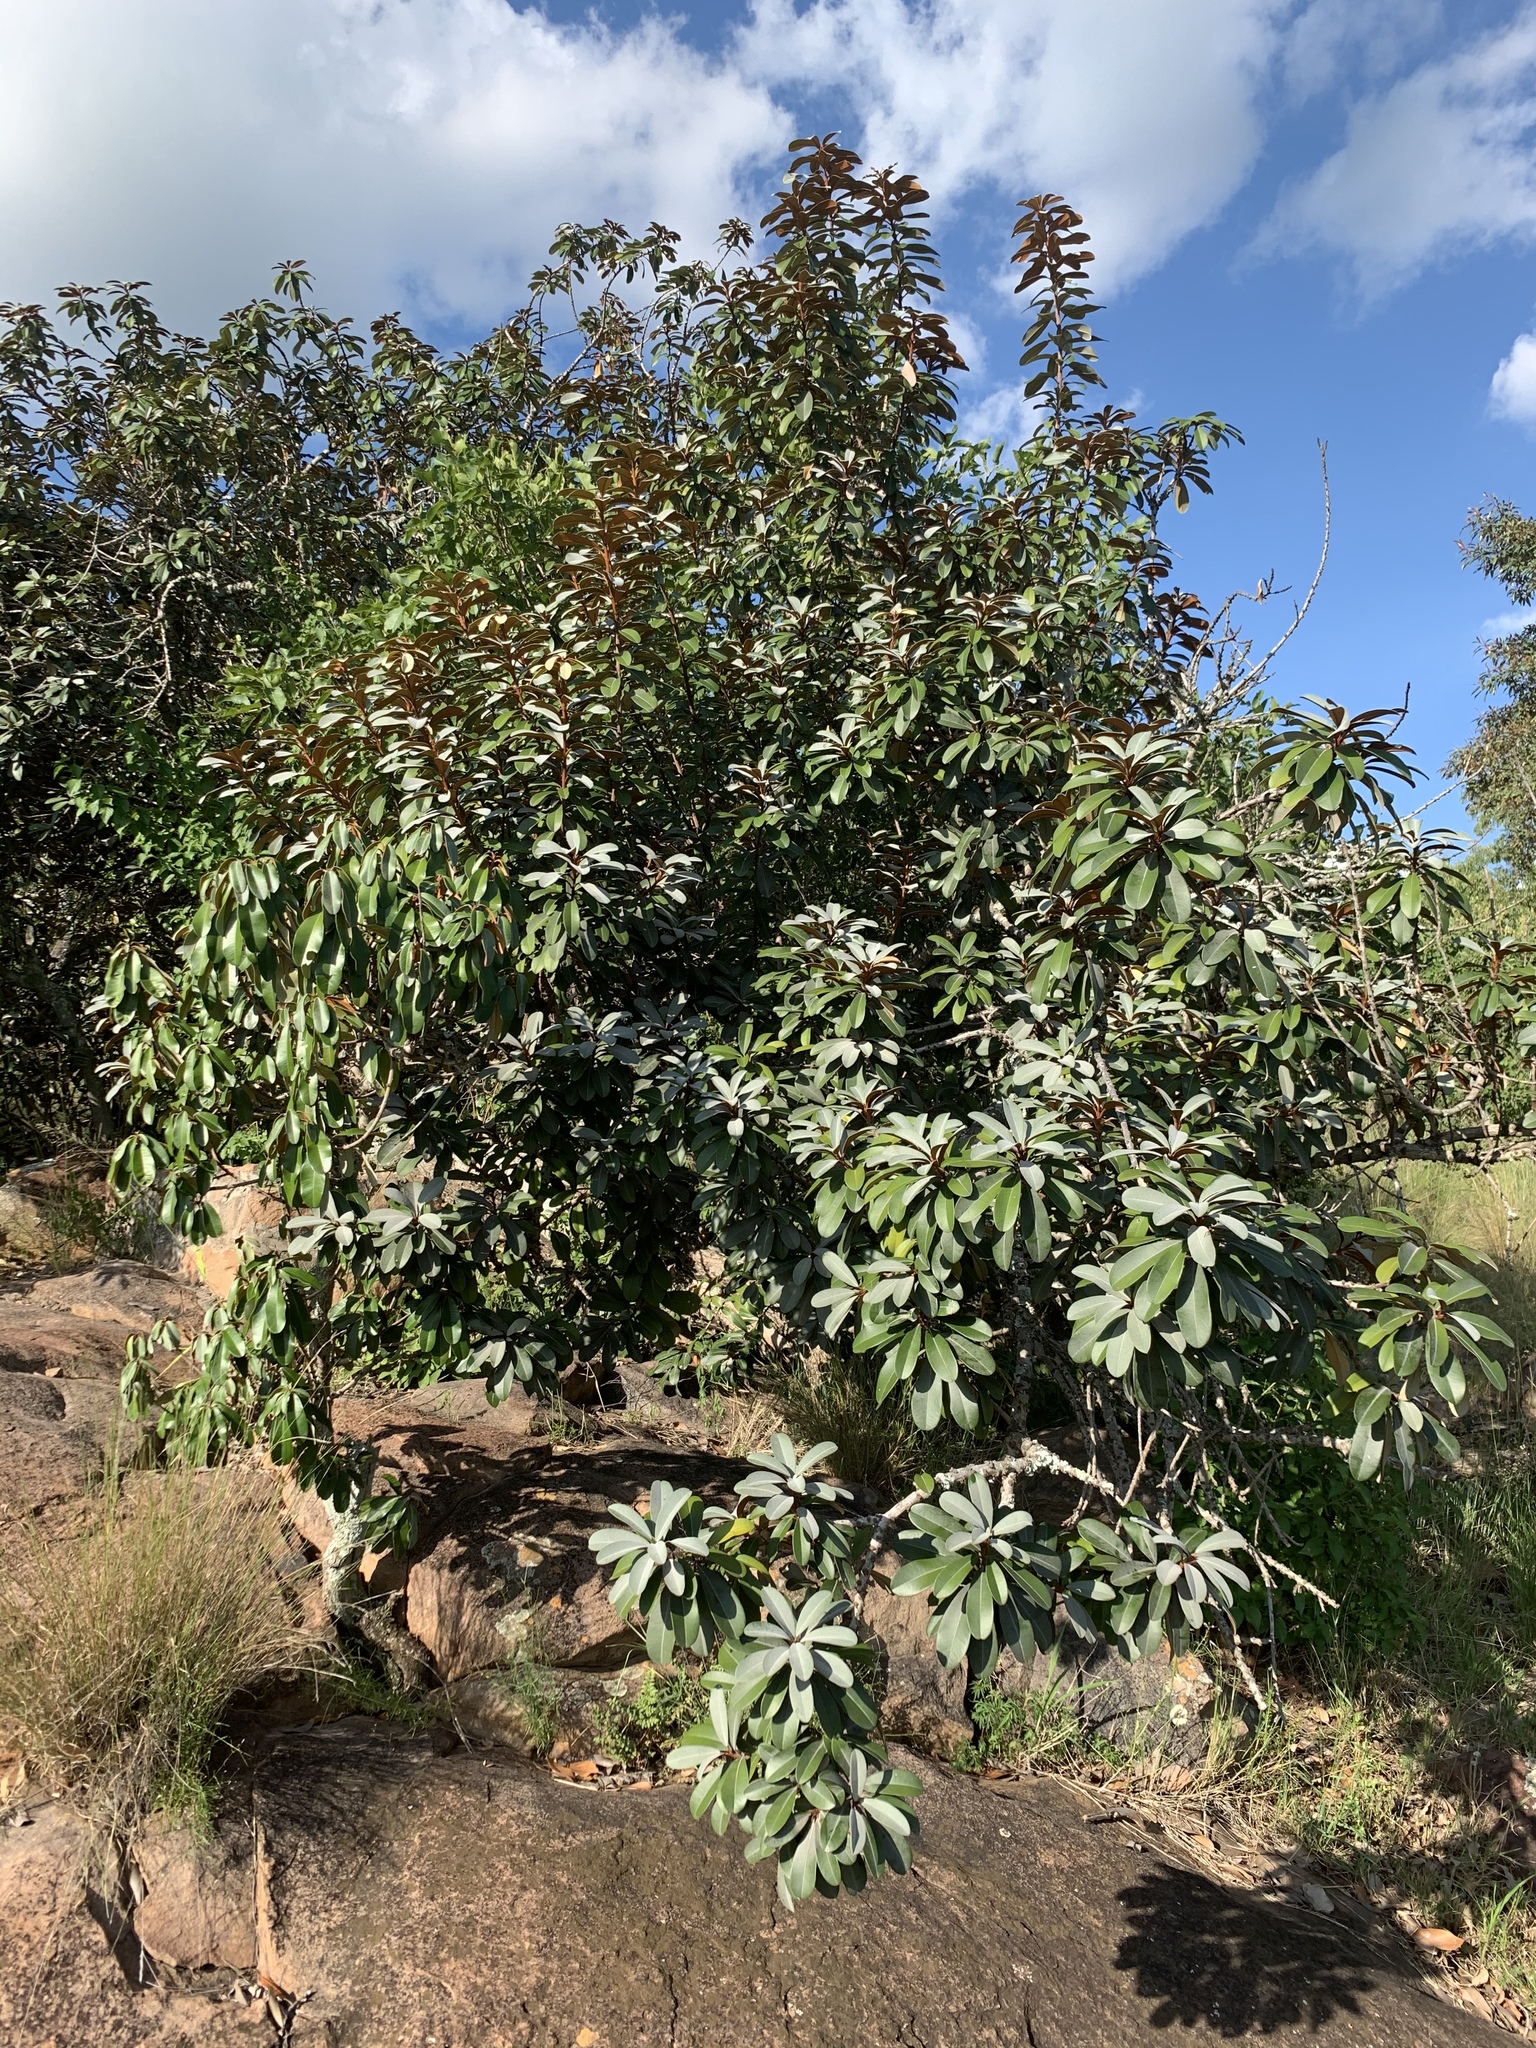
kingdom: Plantae
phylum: Tracheophyta
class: Magnoliopsida
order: Ericales
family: Sapotaceae
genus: Englerophytum
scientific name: Englerophytum magalismontanum
